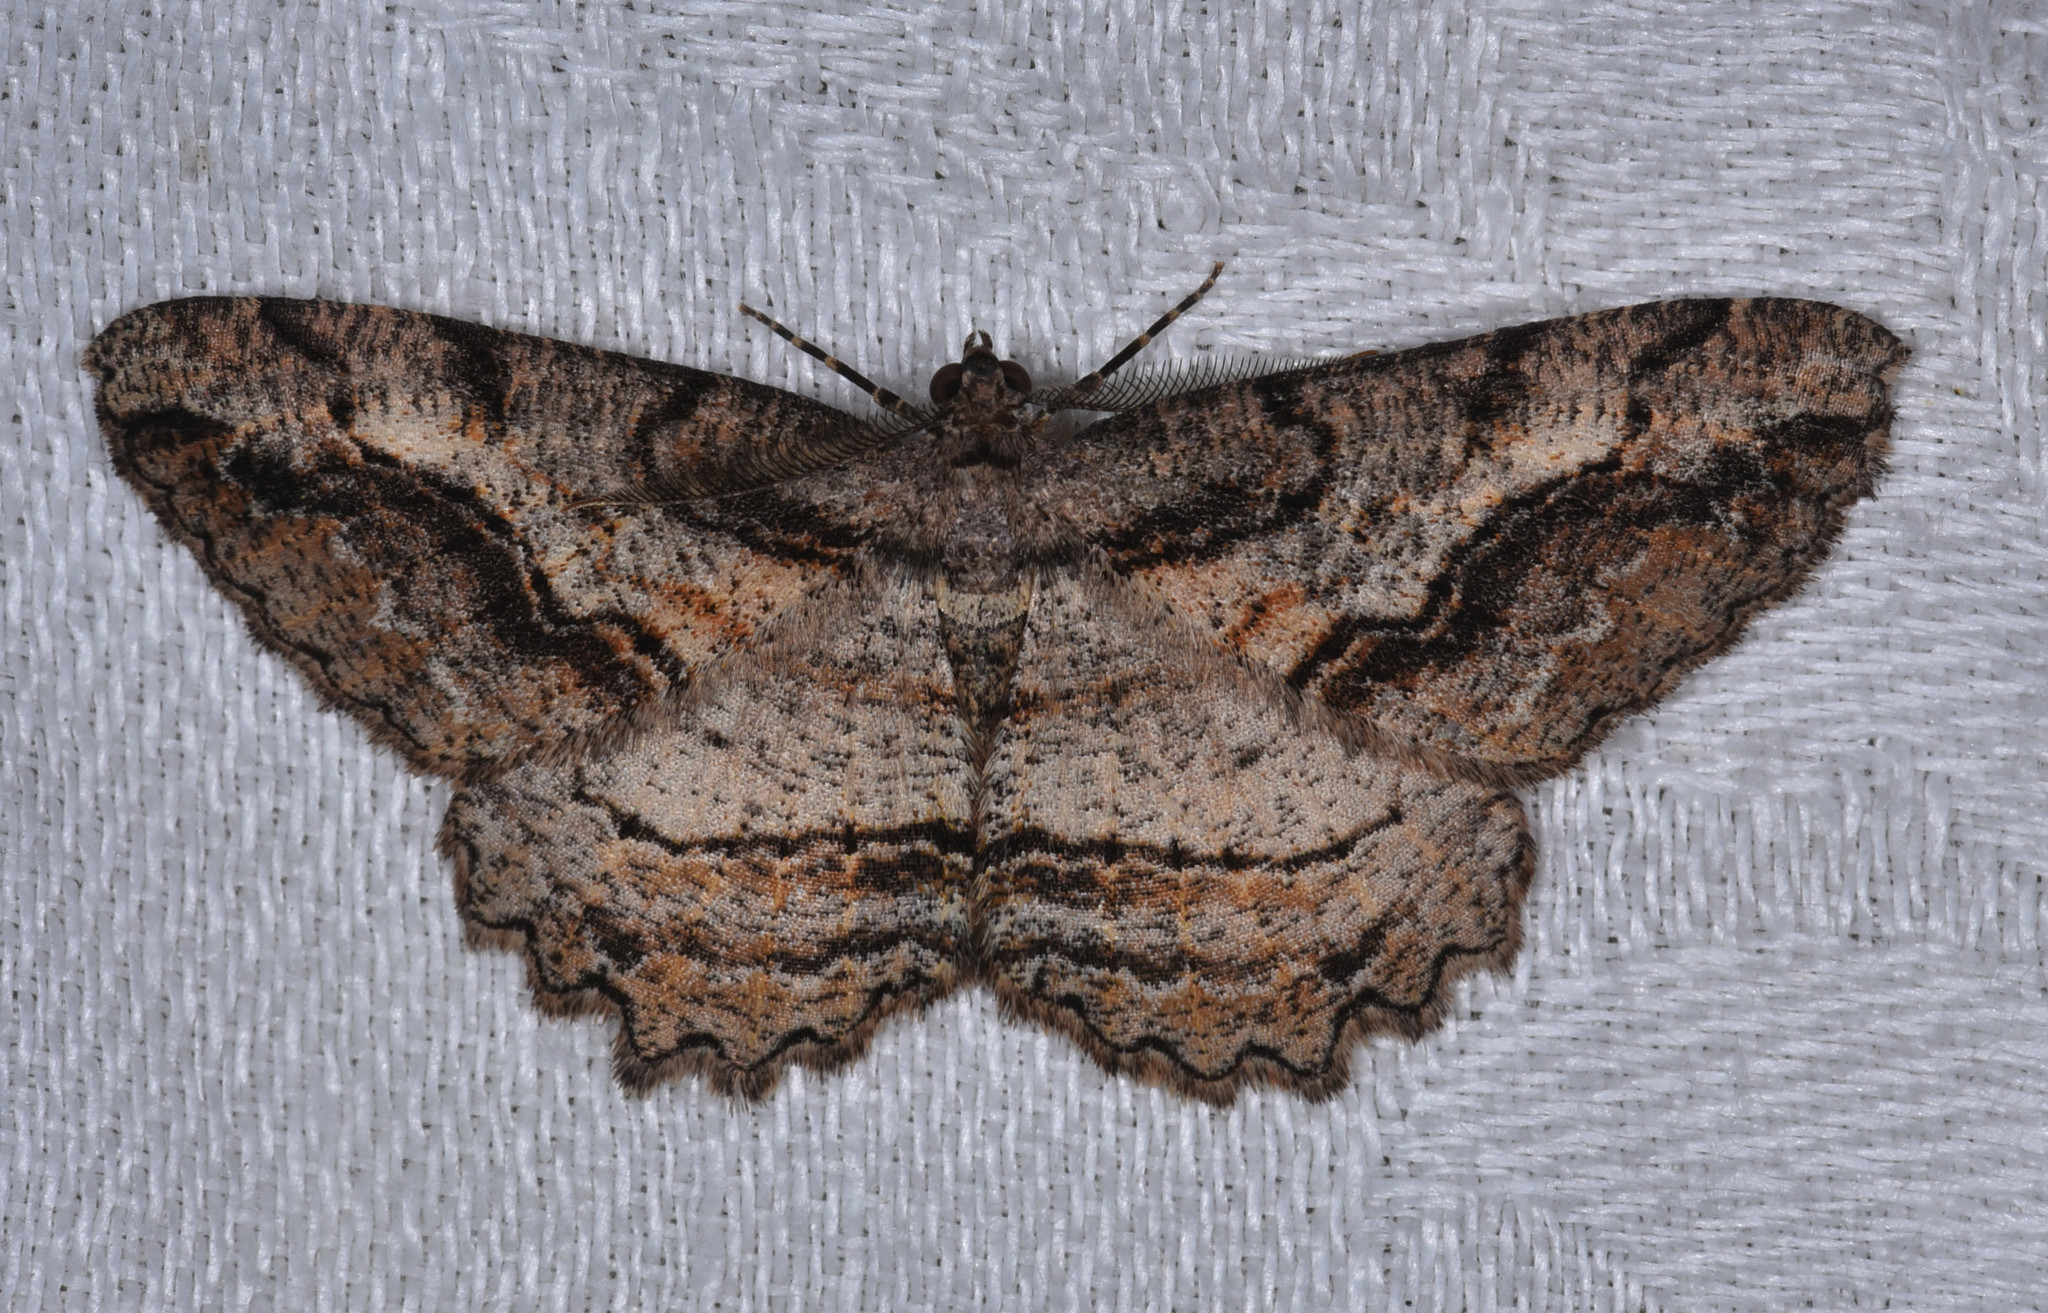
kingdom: Animalia
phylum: Arthropoda
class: Insecta
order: Lepidoptera
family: Geometridae
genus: Neoalcis
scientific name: Neoalcis californiaria
